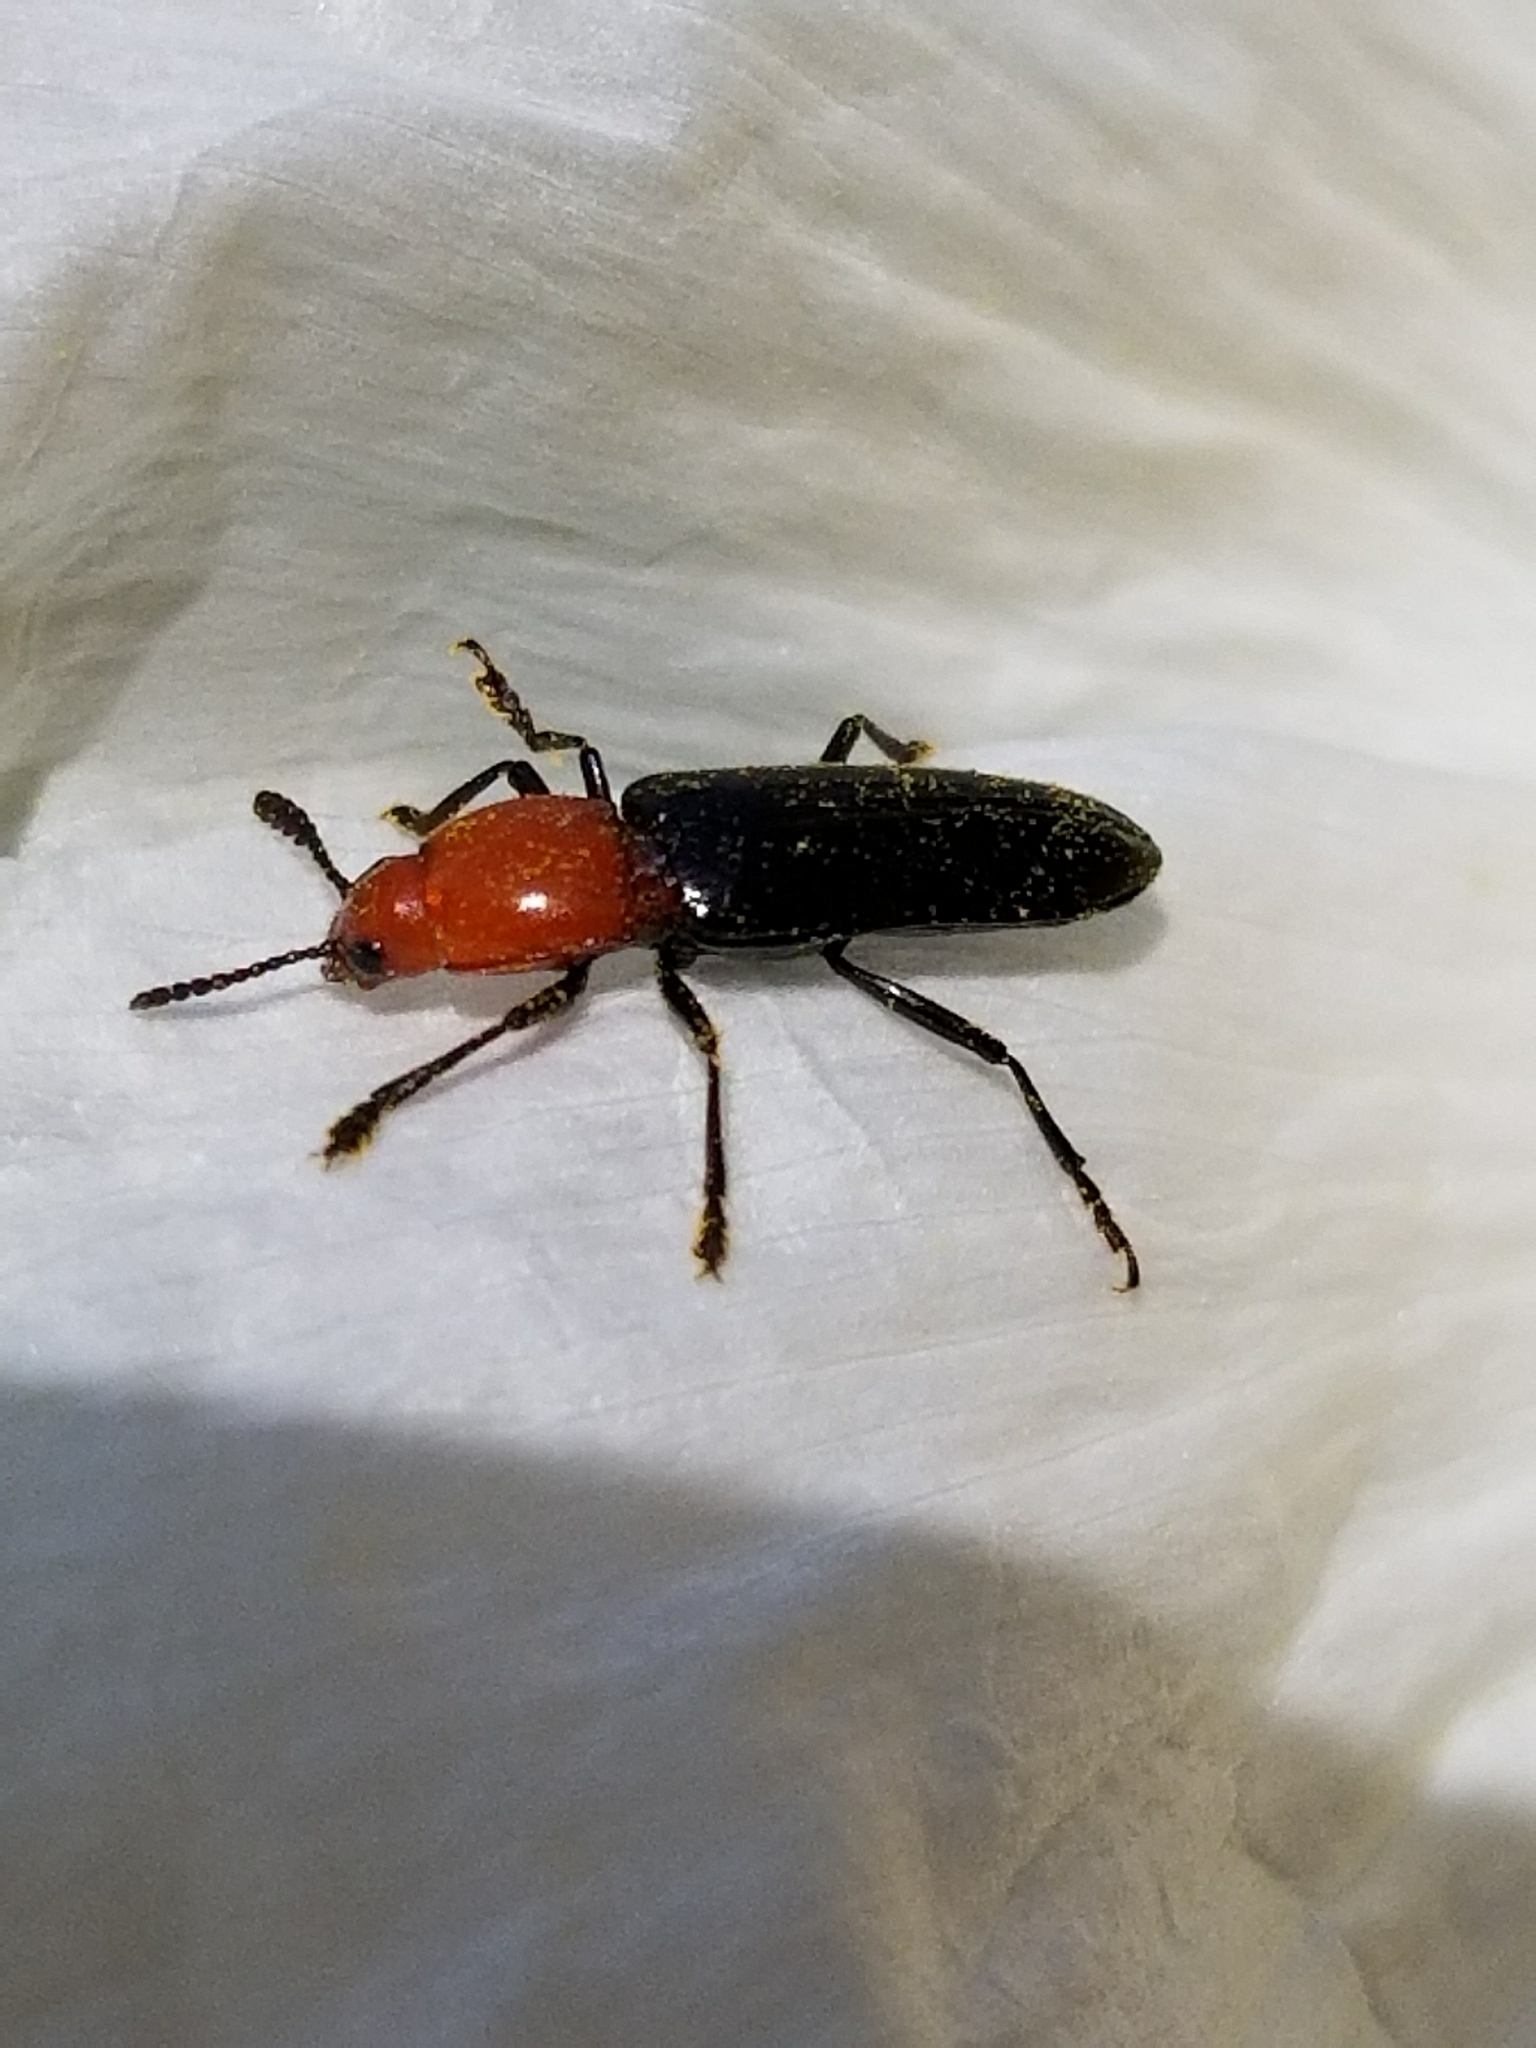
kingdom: Animalia
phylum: Arthropoda
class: Insecta
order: Coleoptera
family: Erotylidae
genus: Languria
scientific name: Languria laeta
